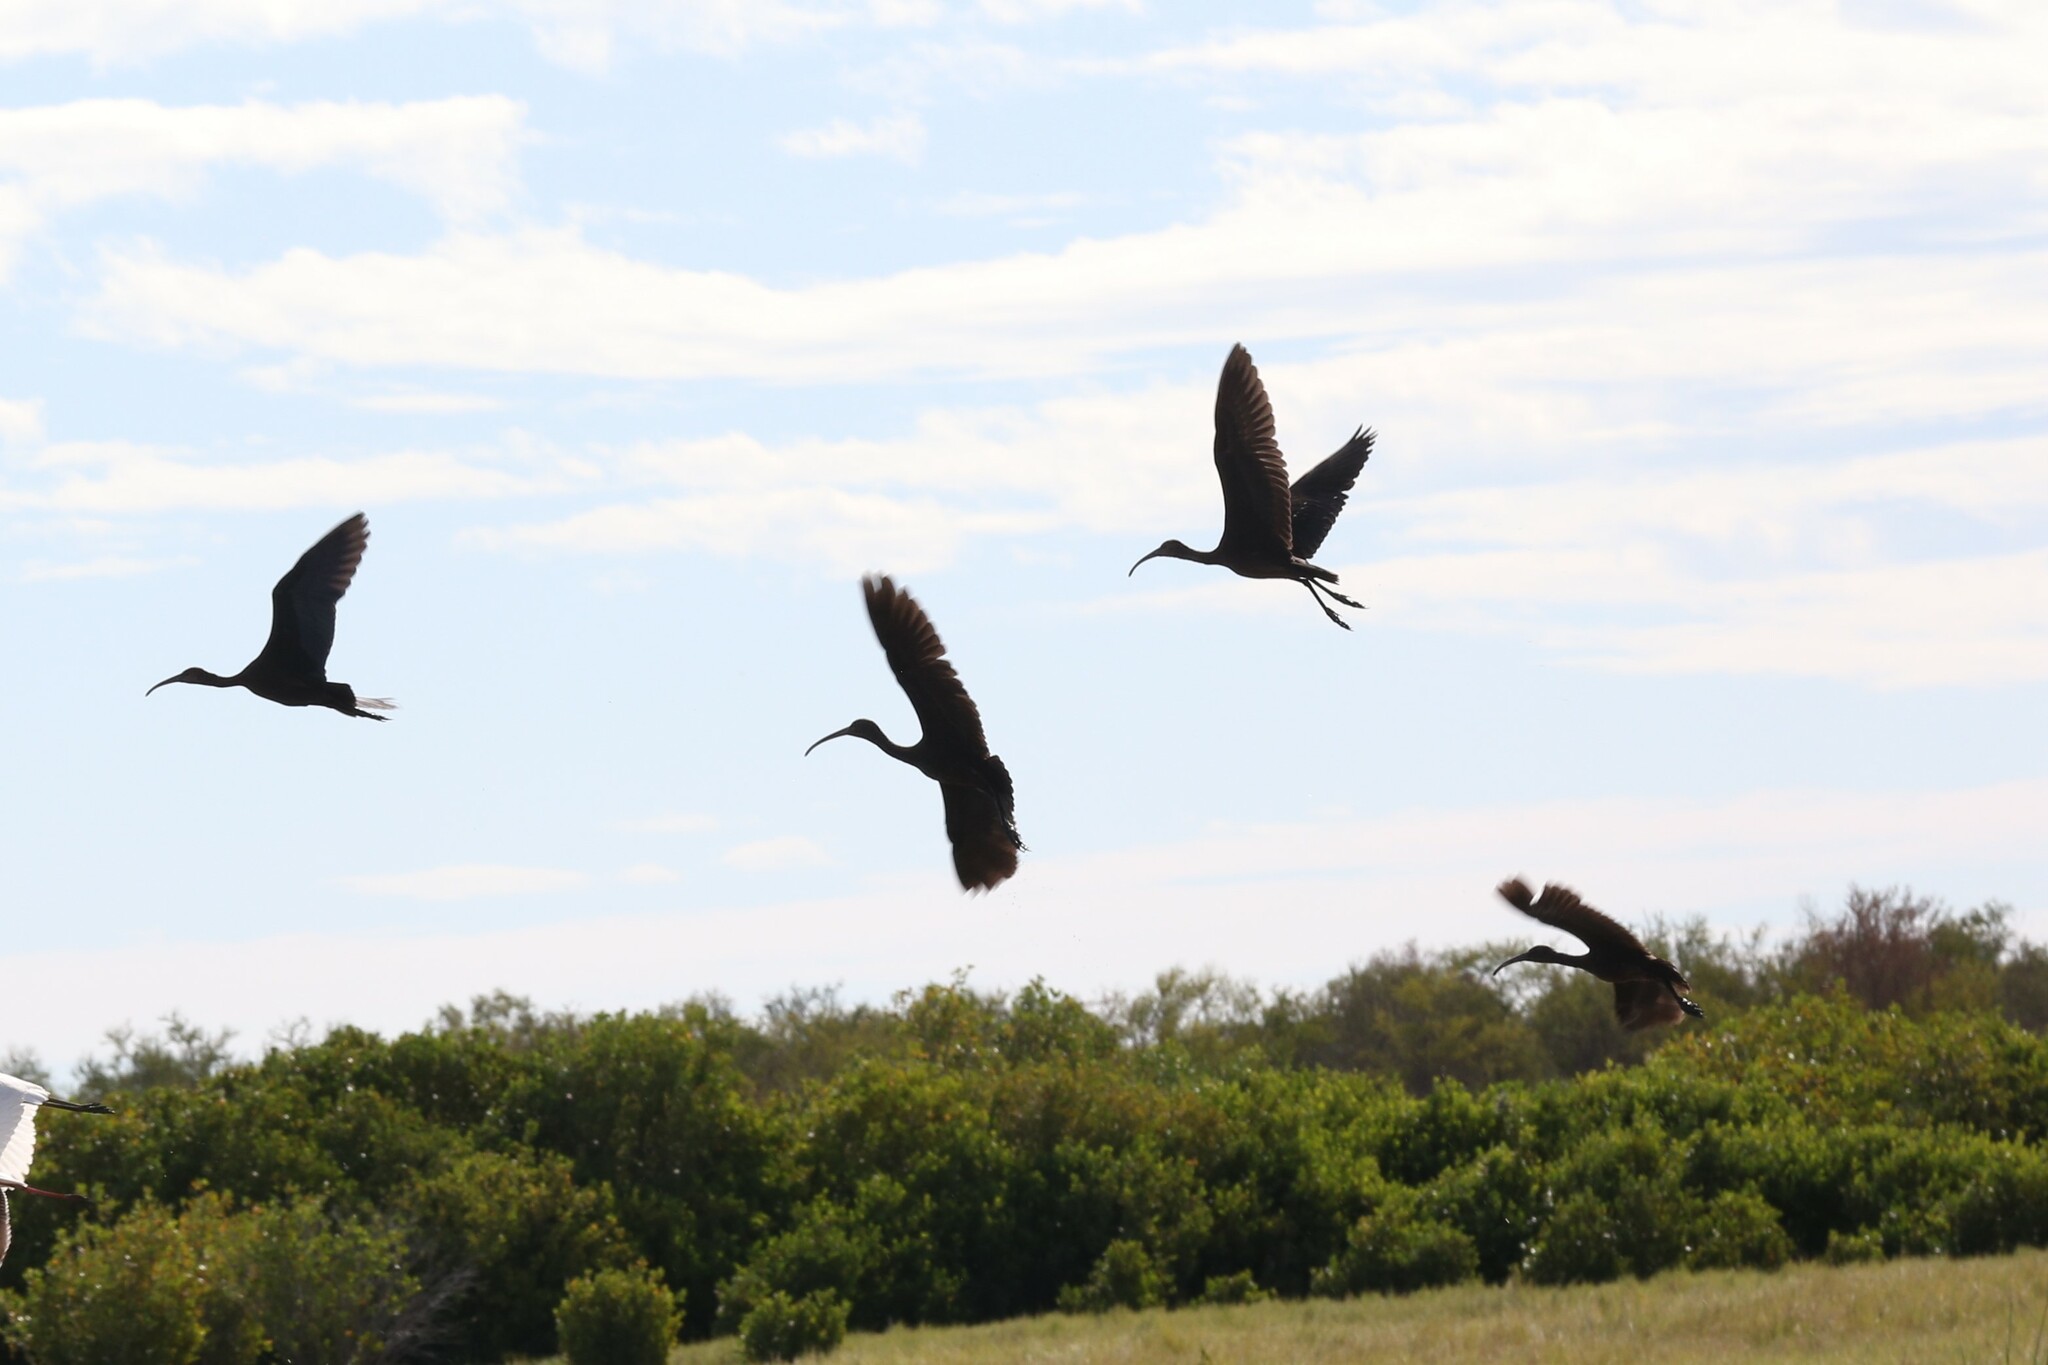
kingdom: Animalia
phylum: Chordata
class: Aves
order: Pelecaniformes
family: Threskiornithidae
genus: Plegadis
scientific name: Plegadis falcinellus
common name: Glossy ibis
